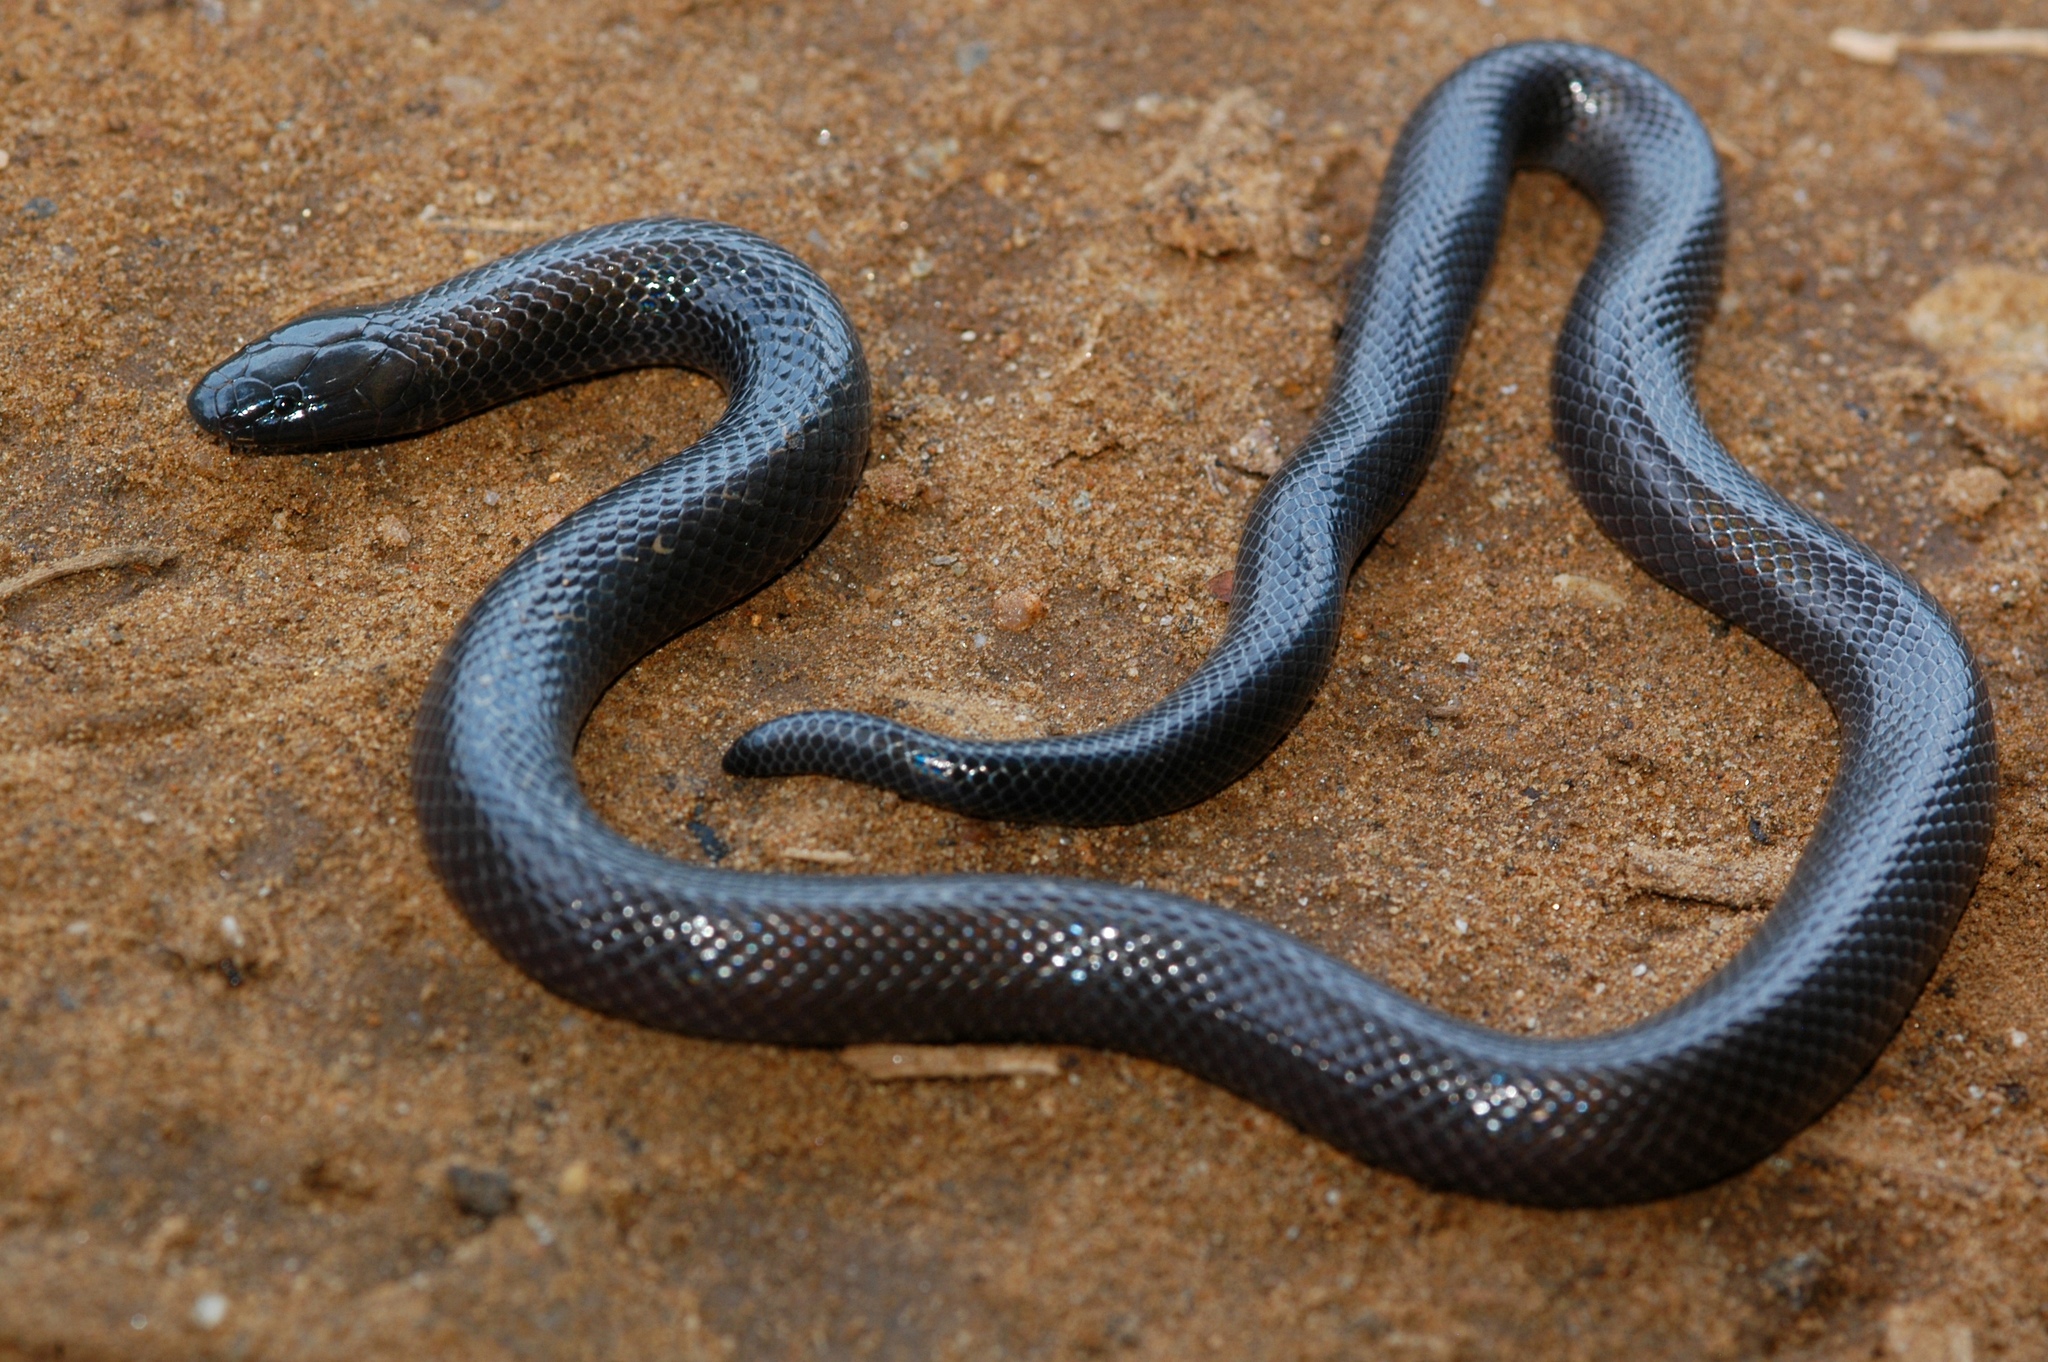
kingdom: Animalia
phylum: Chordata
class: Squamata
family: Atractaspididae
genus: Amblyodipsas
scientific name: Amblyodipsas polylepis
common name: Common purple-glossed snake
